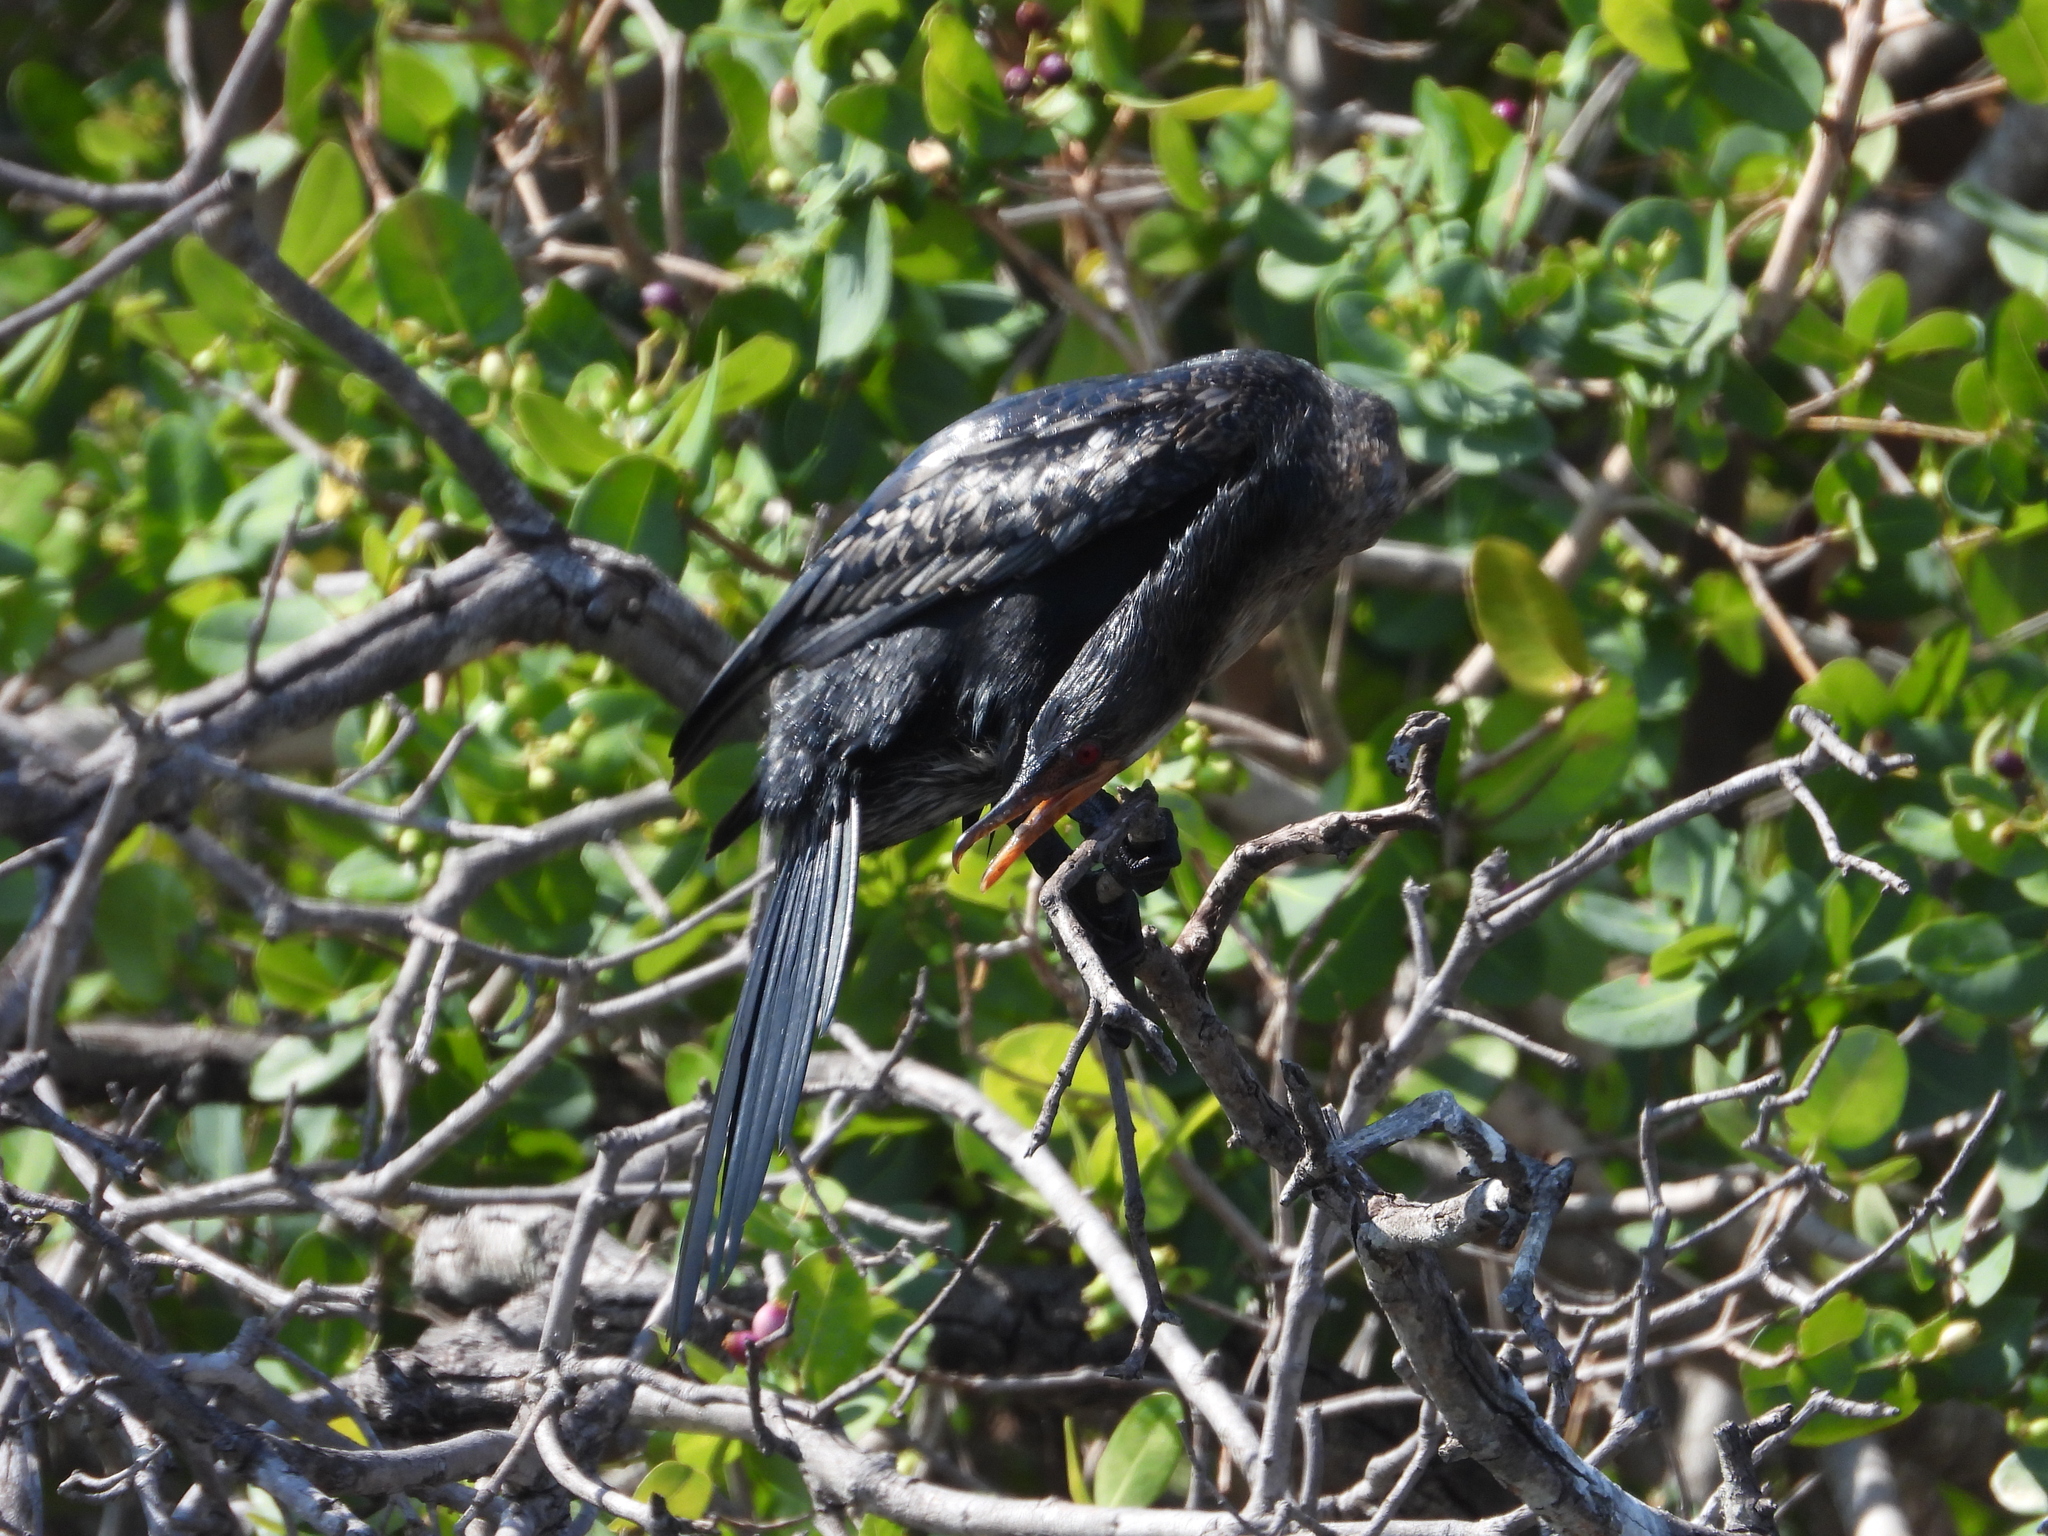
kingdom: Animalia
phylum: Chordata
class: Aves
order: Suliformes
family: Phalacrocoracidae
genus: Microcarbo
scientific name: Microcarbo africanus
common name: Long-tailed cormorant
